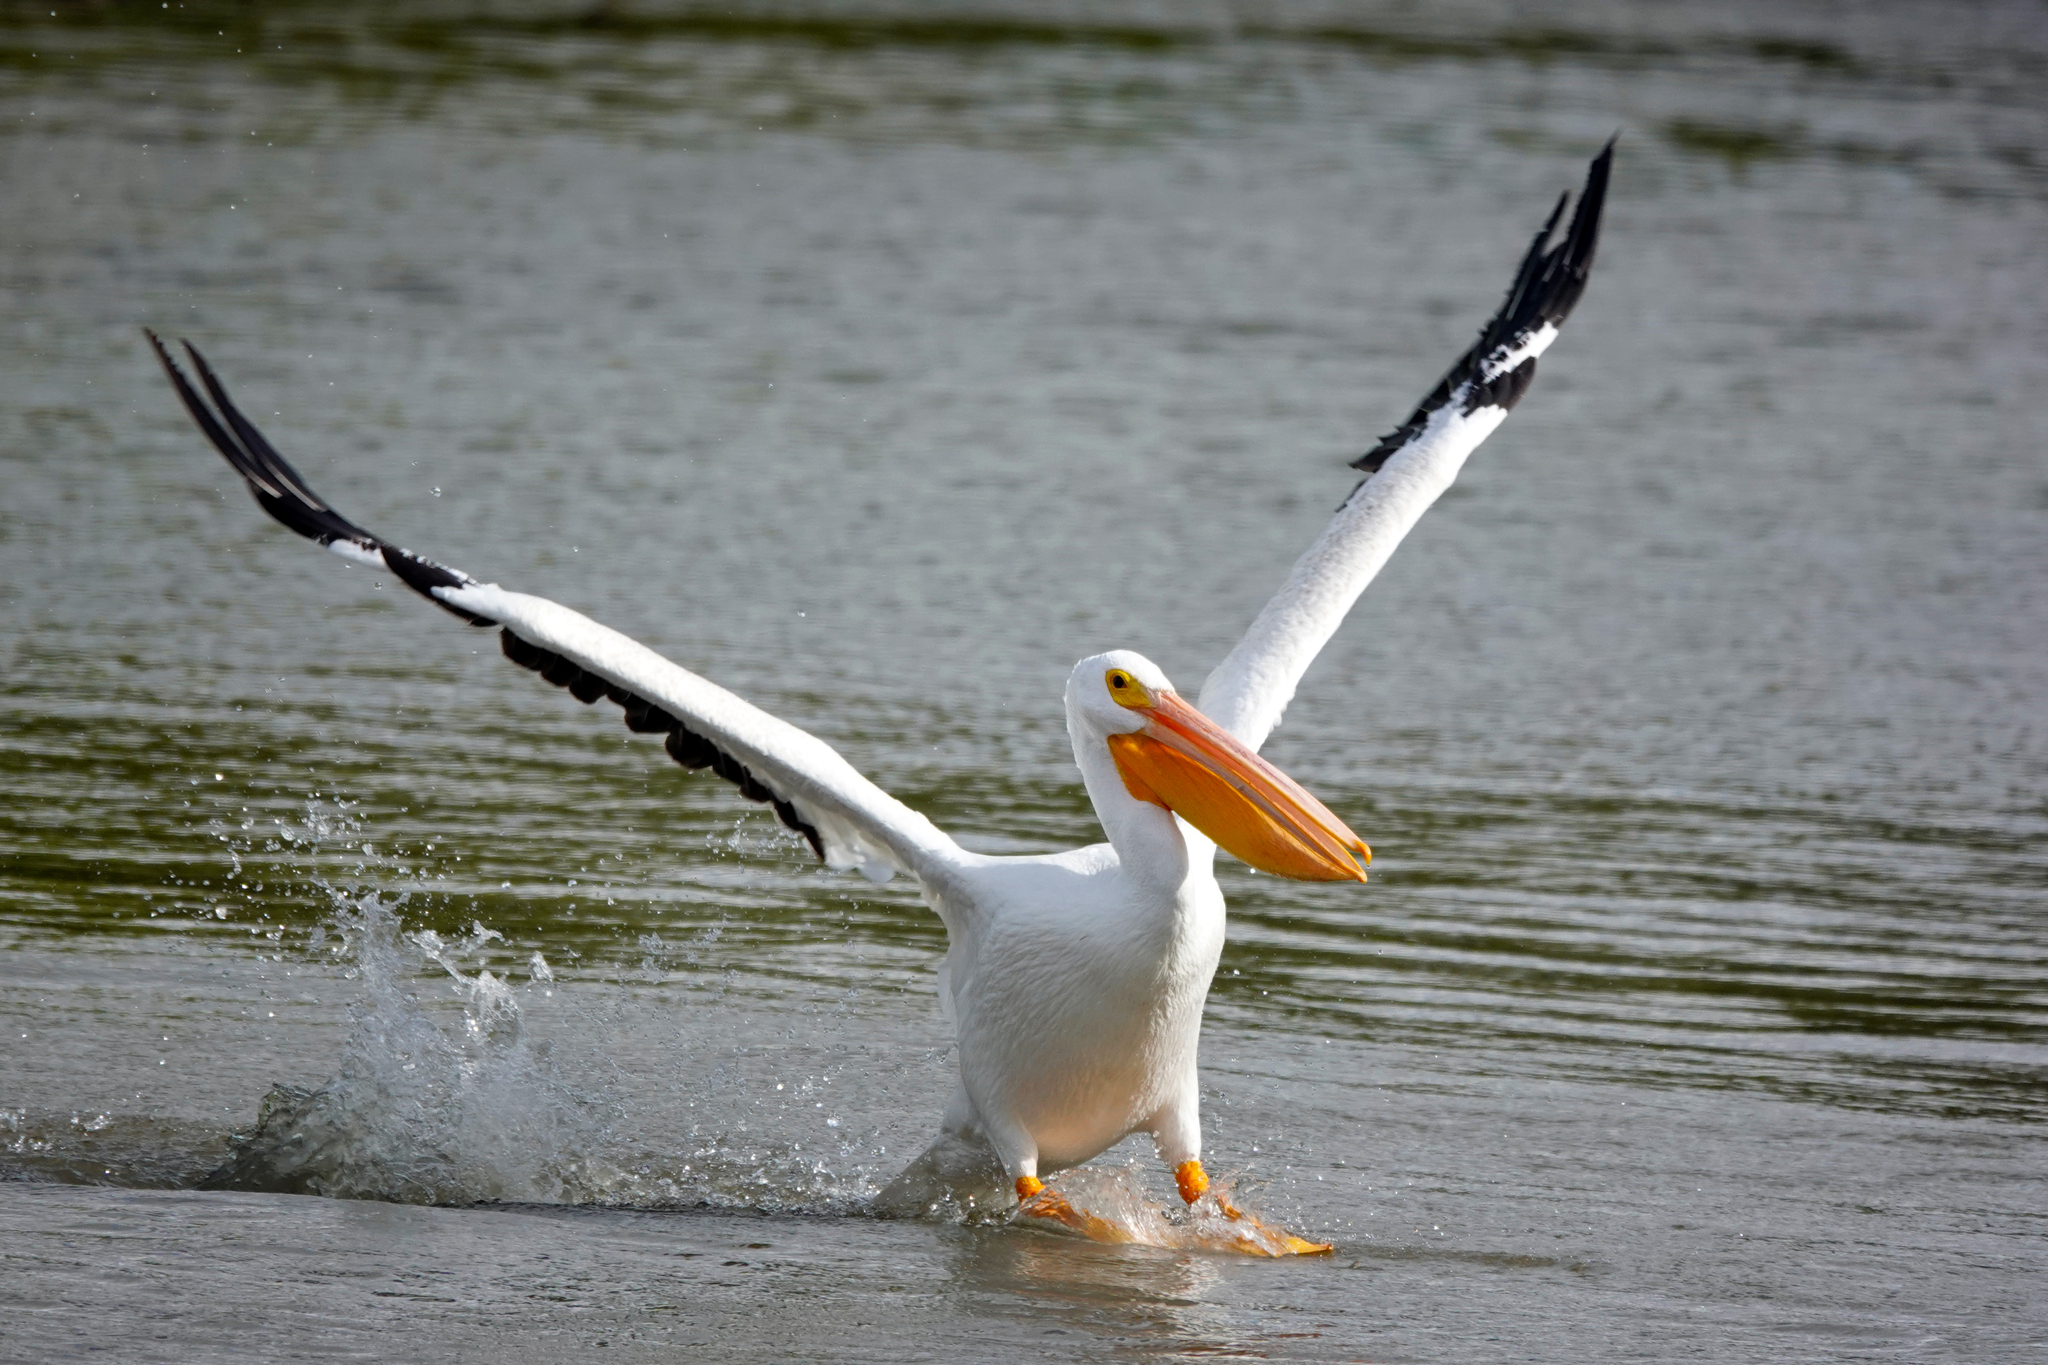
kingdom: Animalia
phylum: Chordata
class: Aves
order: Pelecaniformes
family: Pelecanidae
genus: Pelecanus
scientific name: Pelecanus erythrorhynchos
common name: American white pelican
